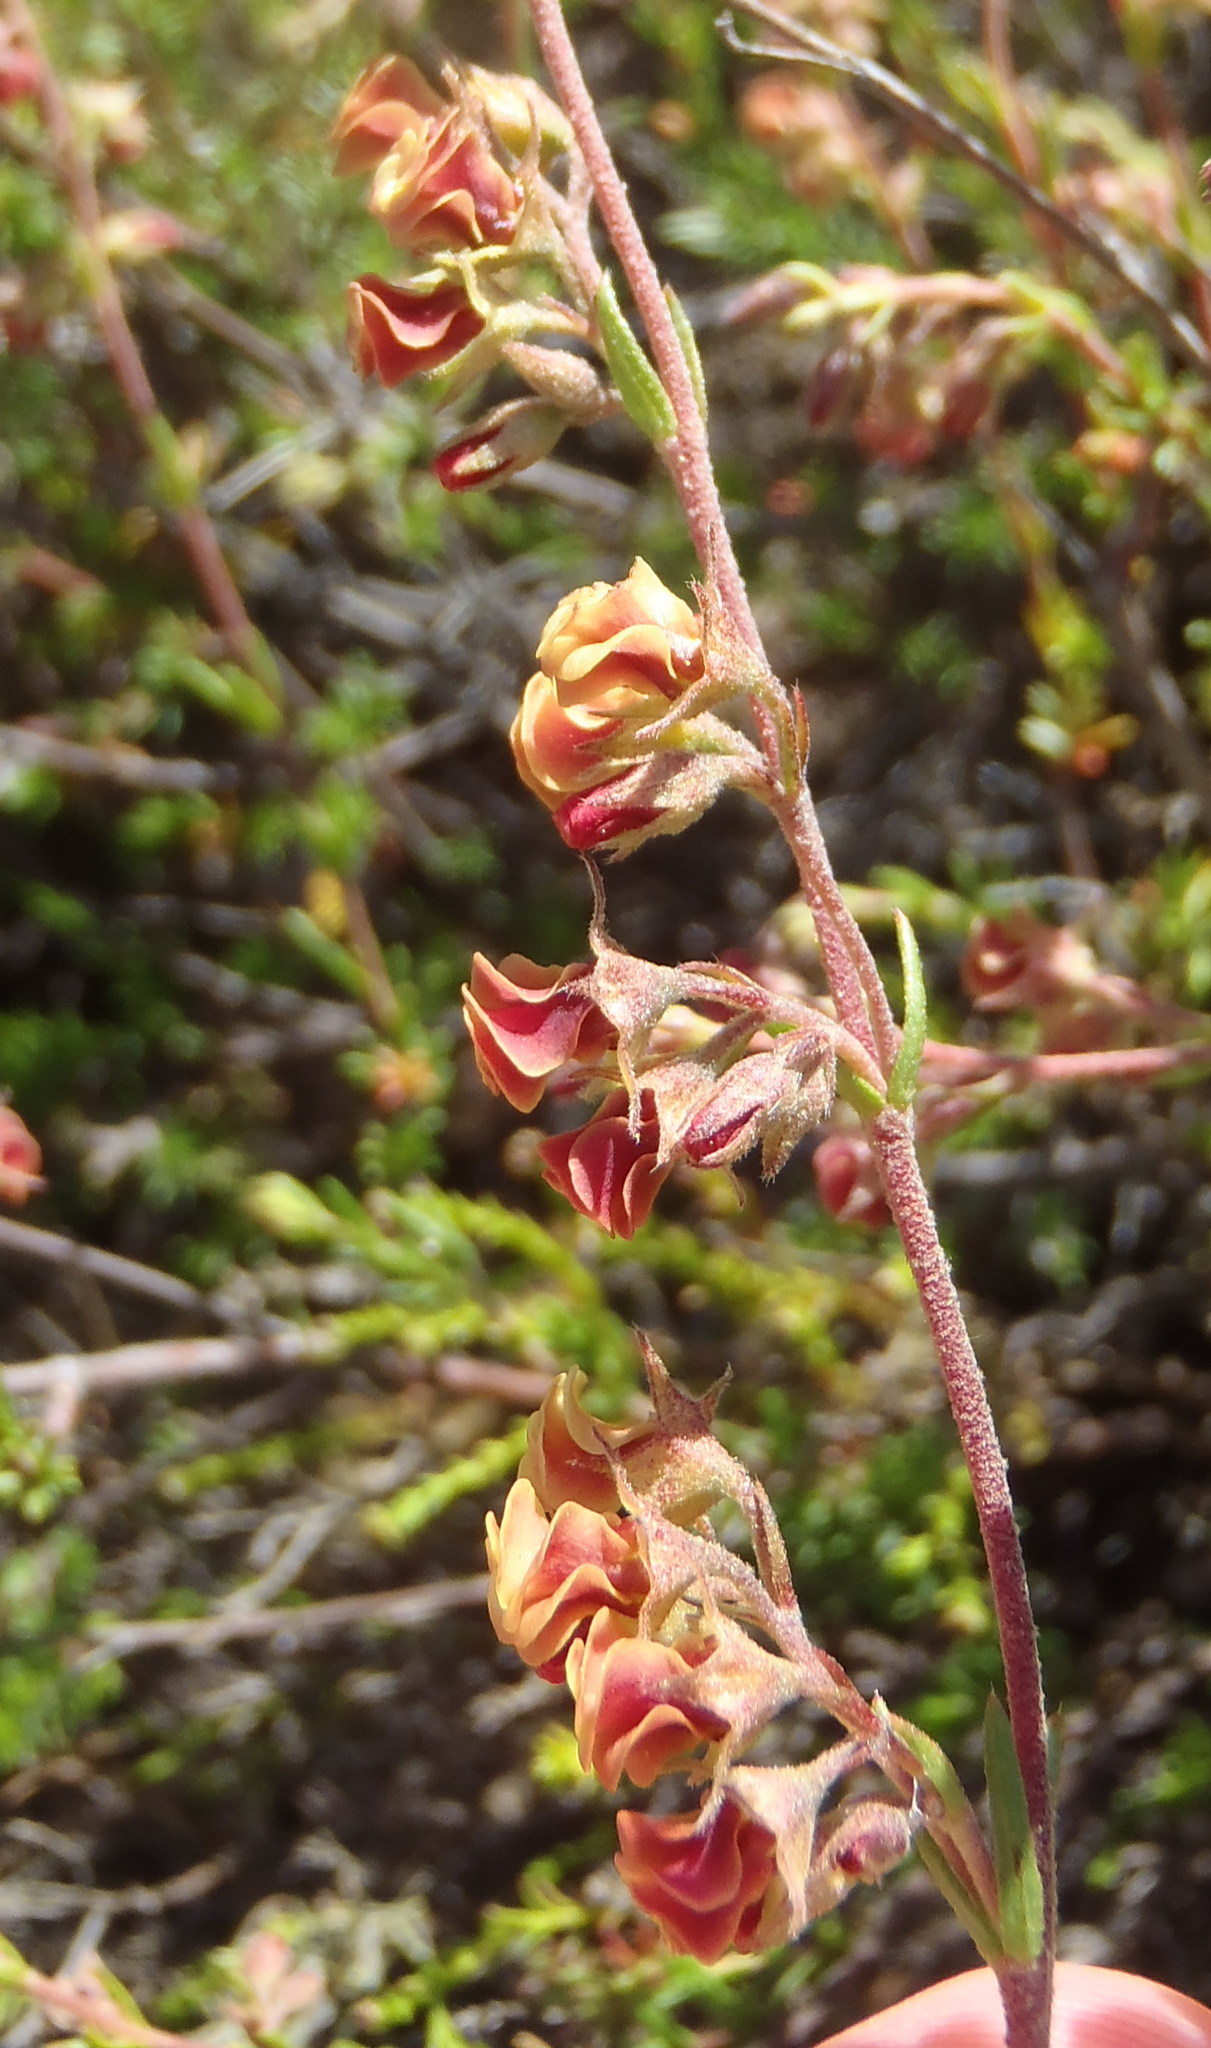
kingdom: Plantae
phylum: Tracheophyta
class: Magnoliopsida
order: Malvales
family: Malvaceae
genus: Hermannia
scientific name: Hermannia filifolia
